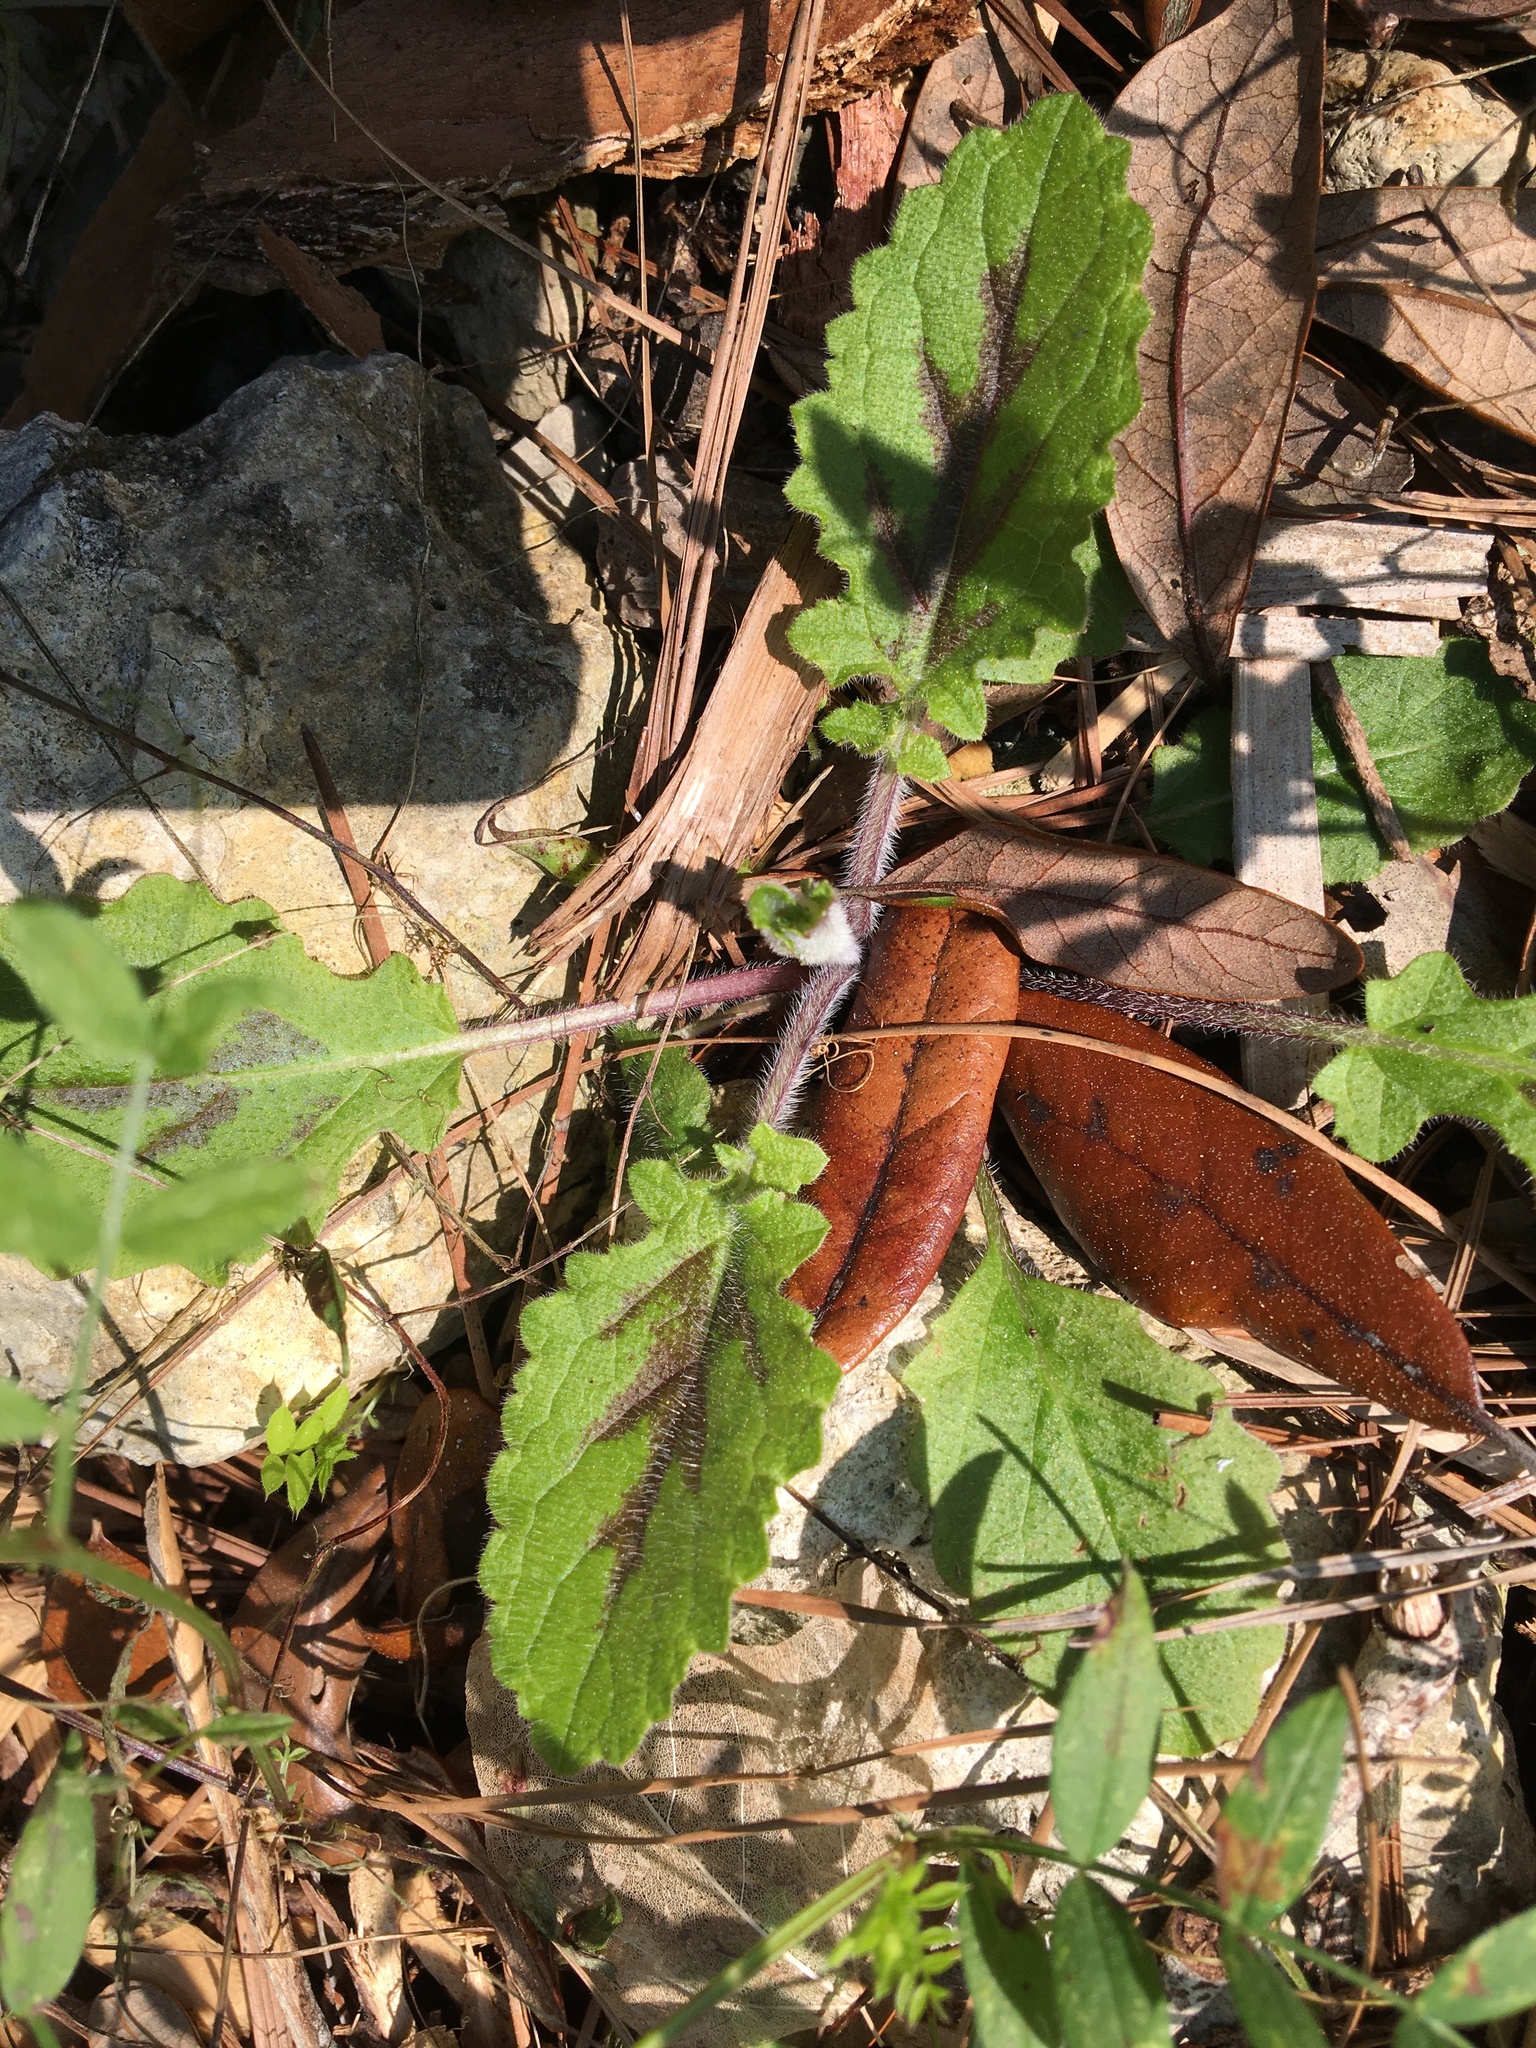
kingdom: Plantae
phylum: Tracheophyta
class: Magnoliopsida
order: Lamiales
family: Lamiaceae
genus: Salvia
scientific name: Salvia lyrata
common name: Cancerweed
